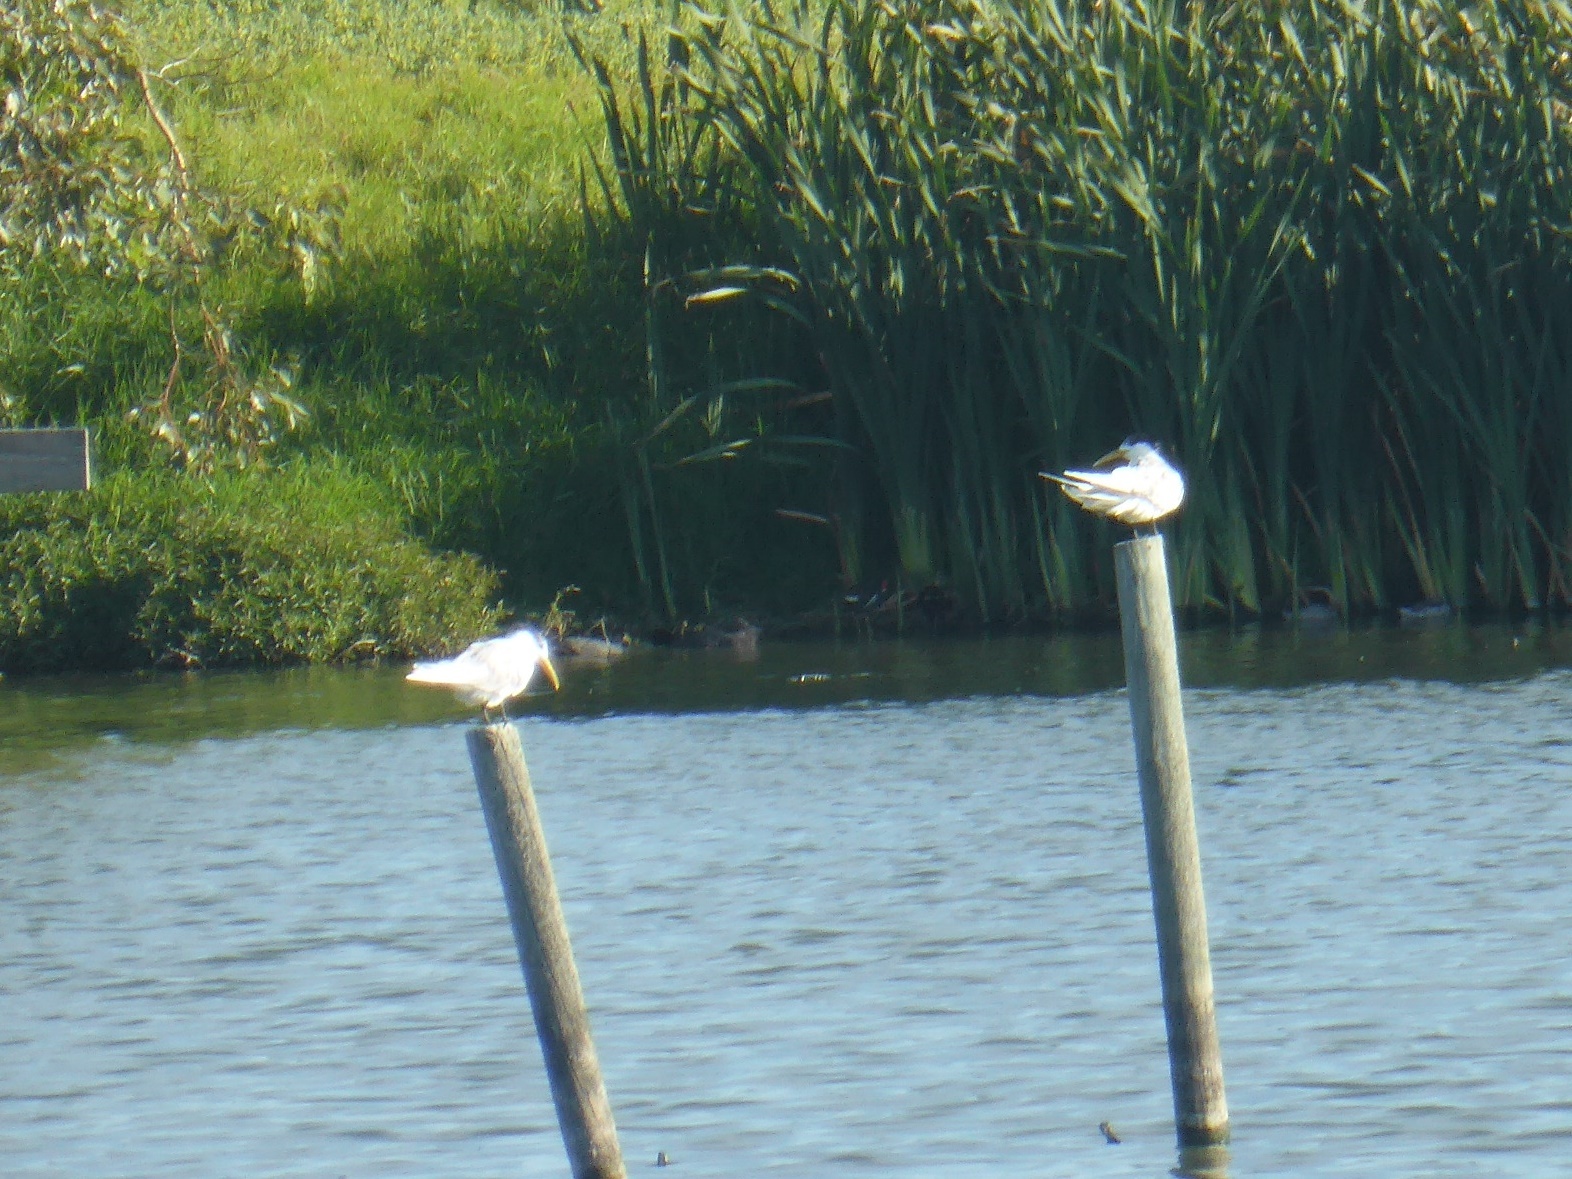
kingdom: Animalia
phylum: Chordata
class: Aves
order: Charadriiformes
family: Laridae
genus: Thalasseus
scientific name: Thalasseus bergii
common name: Greater crested tern
